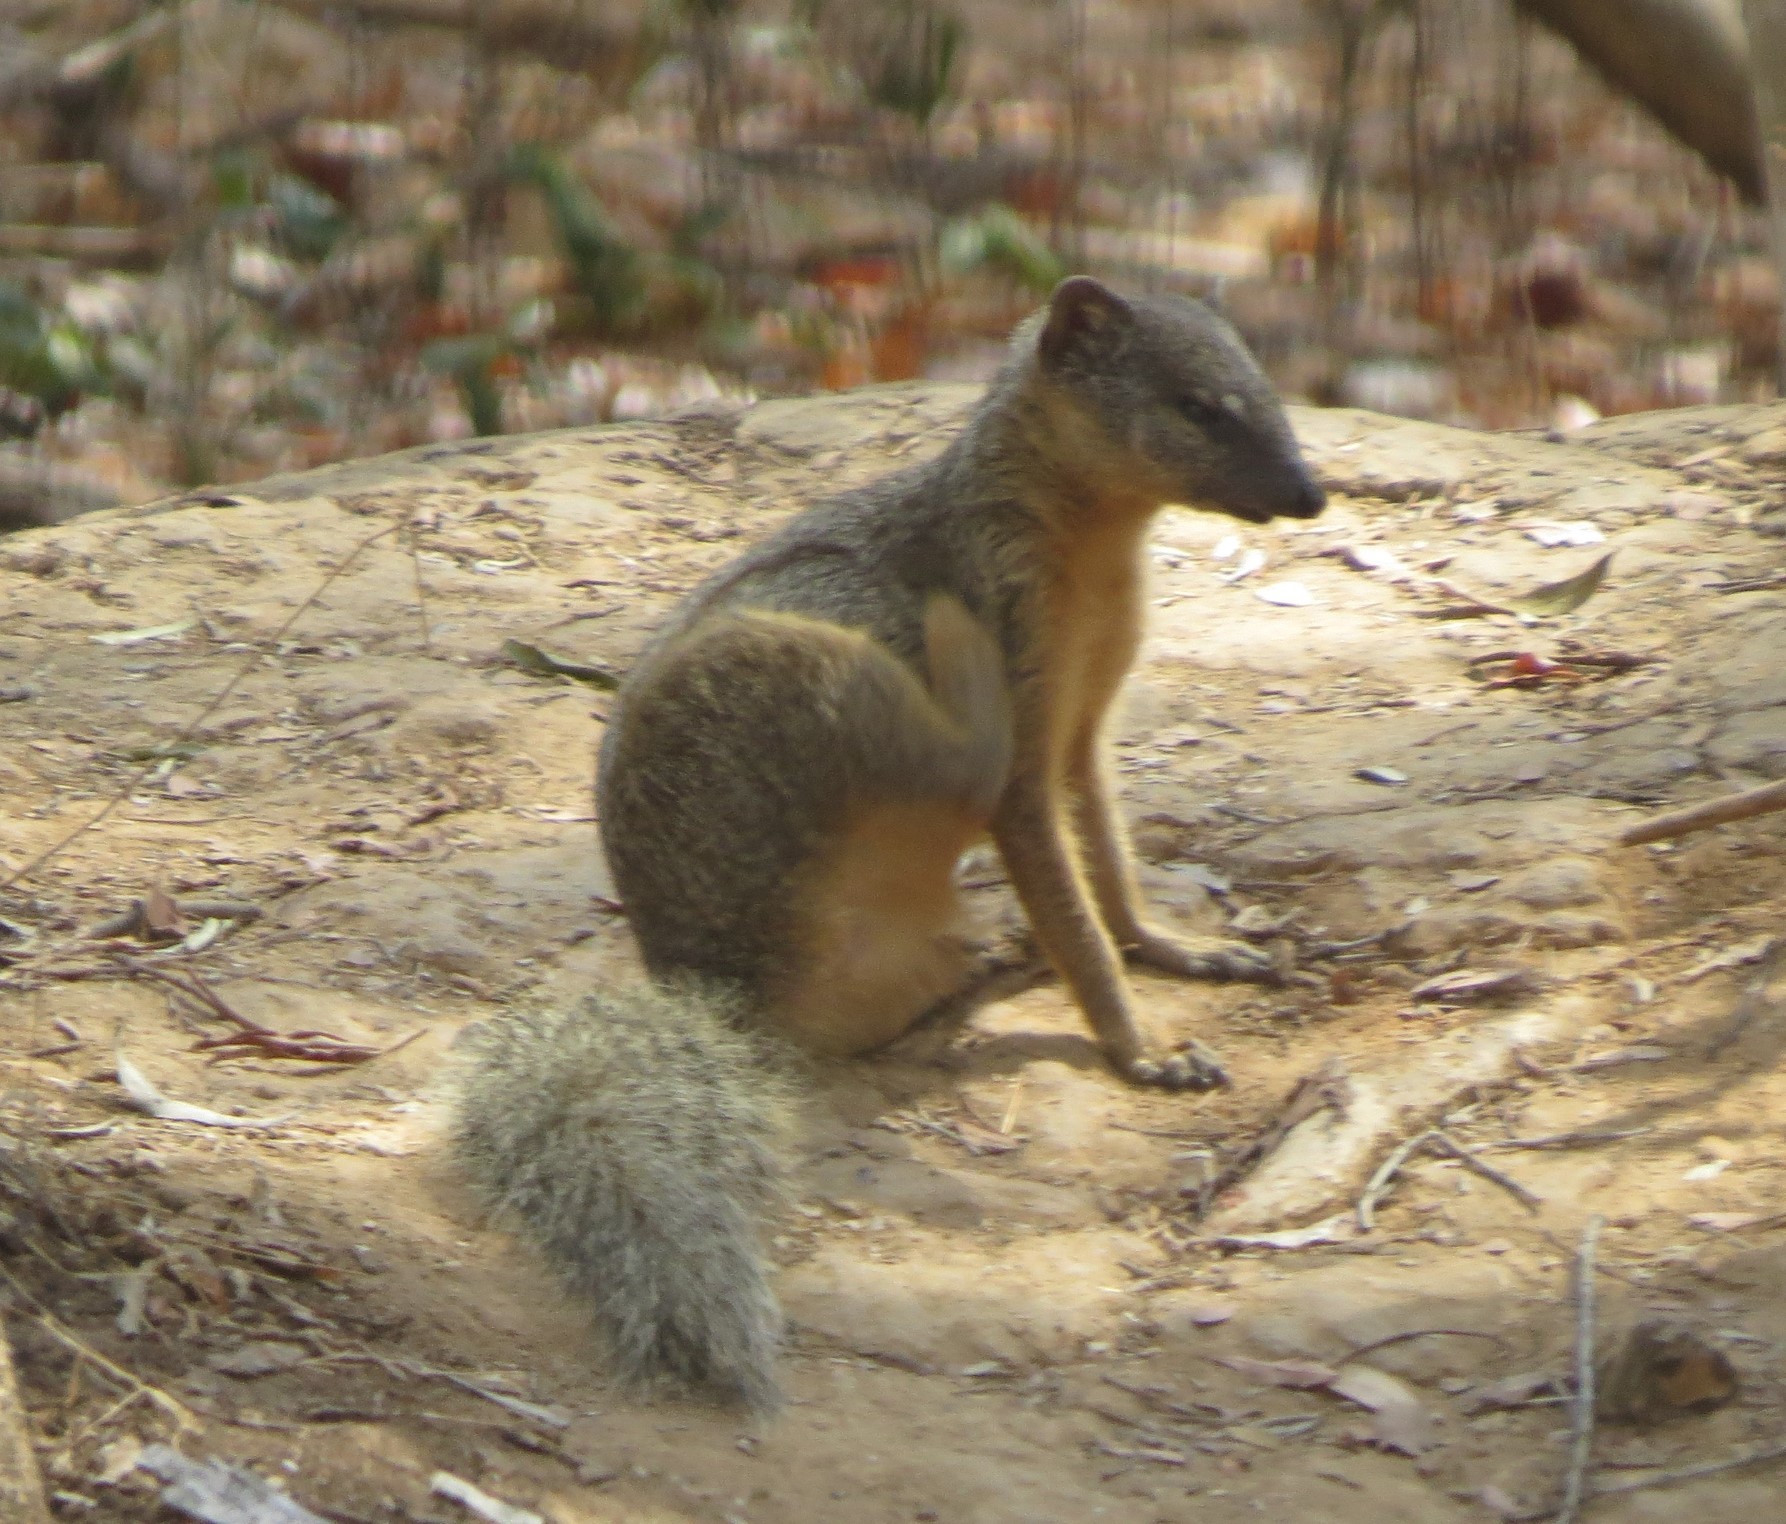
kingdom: Animalia
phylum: Chordata
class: Mammalia
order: Carnivora
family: Eupleridae
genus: Mungotictis
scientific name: Mungotictis decemlineata
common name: Narrow-striped mongoose
